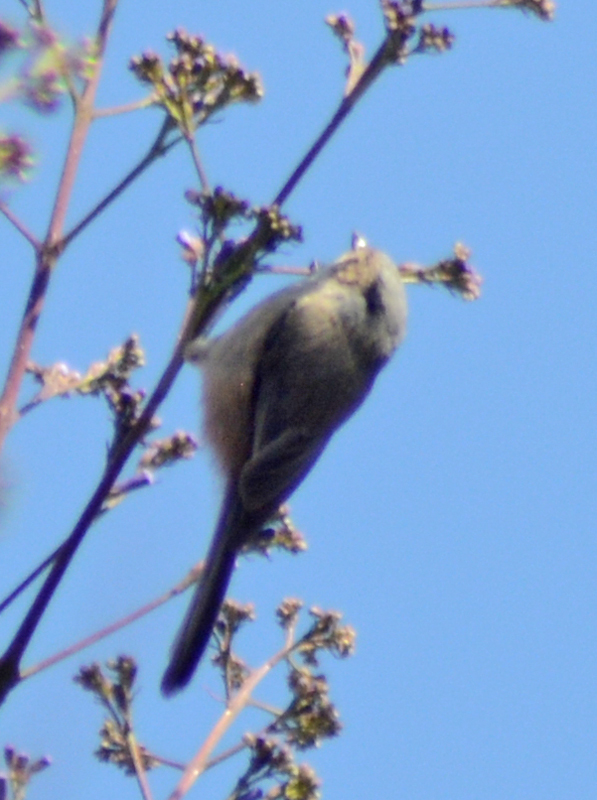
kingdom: Animalia
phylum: Chordata
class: Aves
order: Passeriformes
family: Aegithalidae
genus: Psaltriparus
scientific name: Psaltriparus minimus
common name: American bushtit
